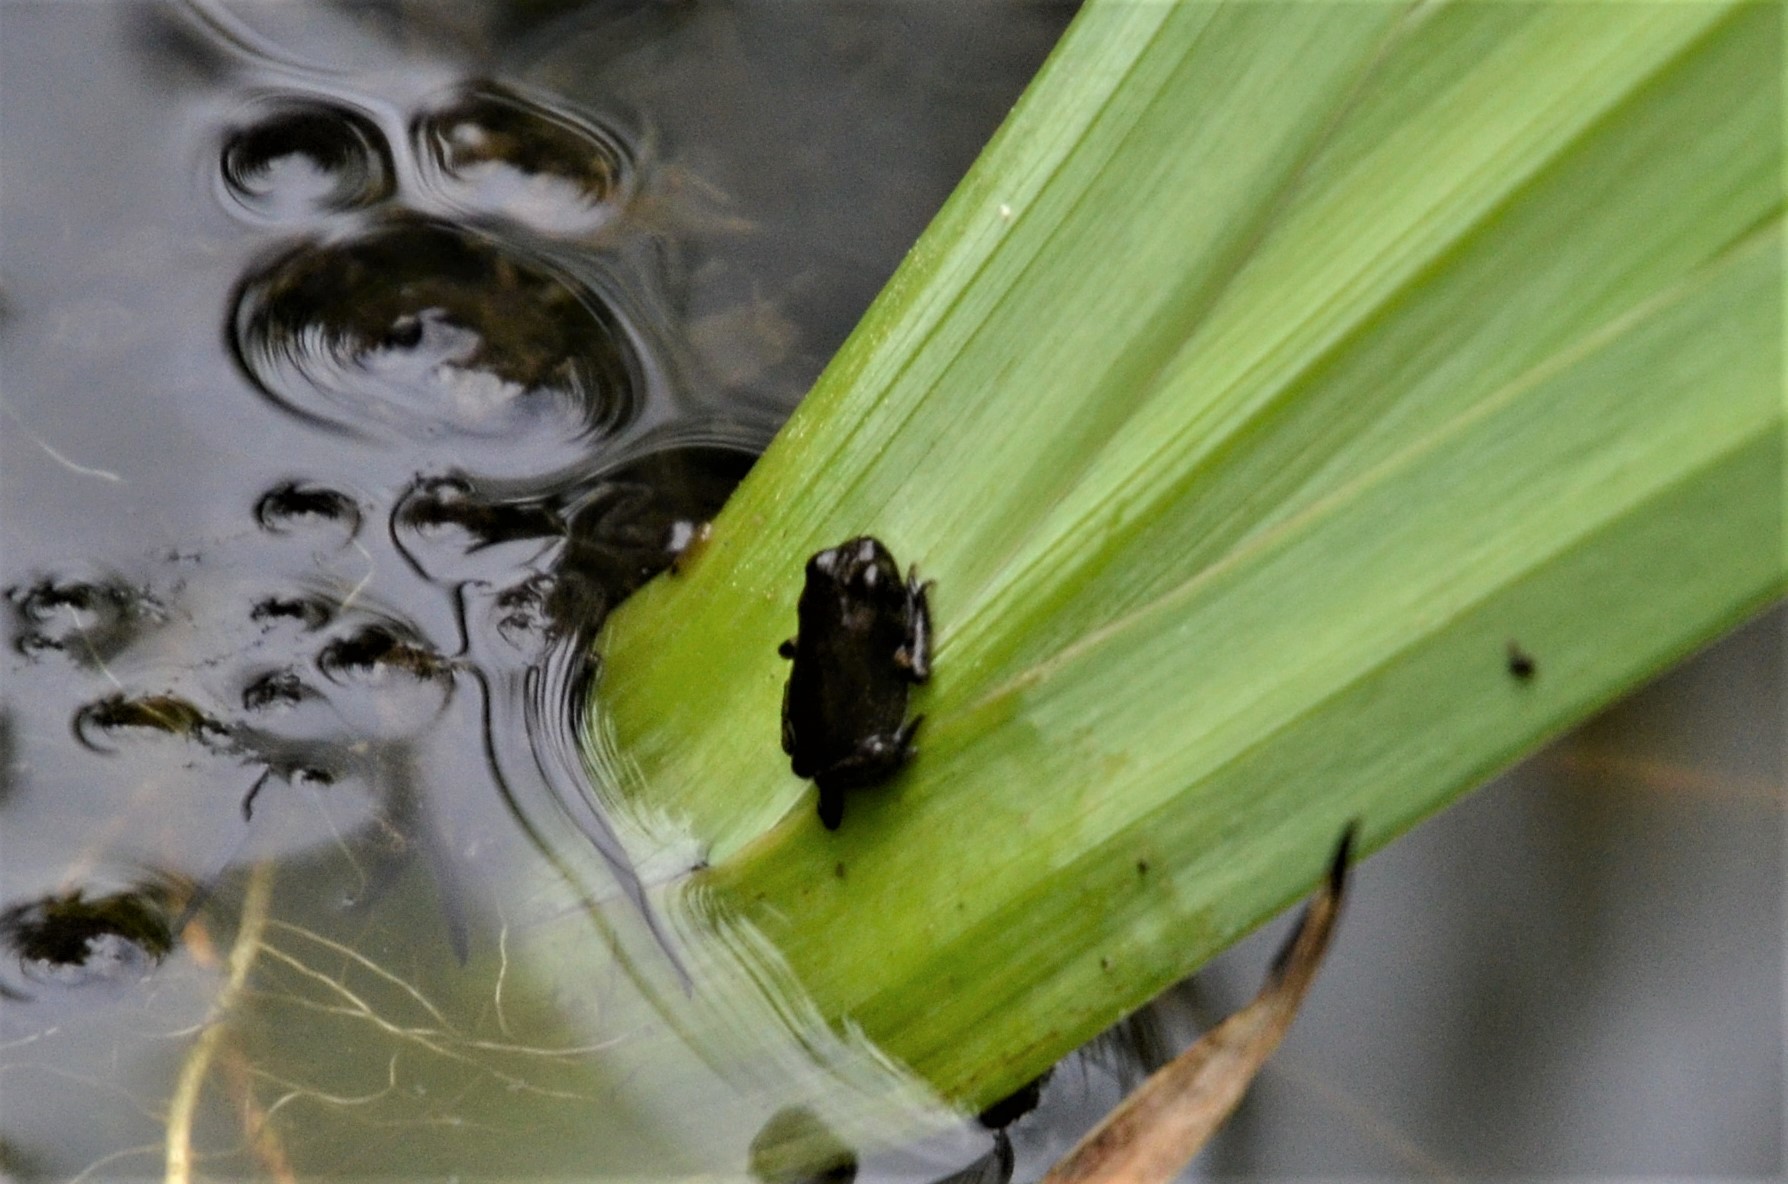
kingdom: Animalia
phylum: Chordata
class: Amphibia
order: Anura
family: Bufonidae
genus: Bufo
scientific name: Bufo bufo
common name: Common toad
